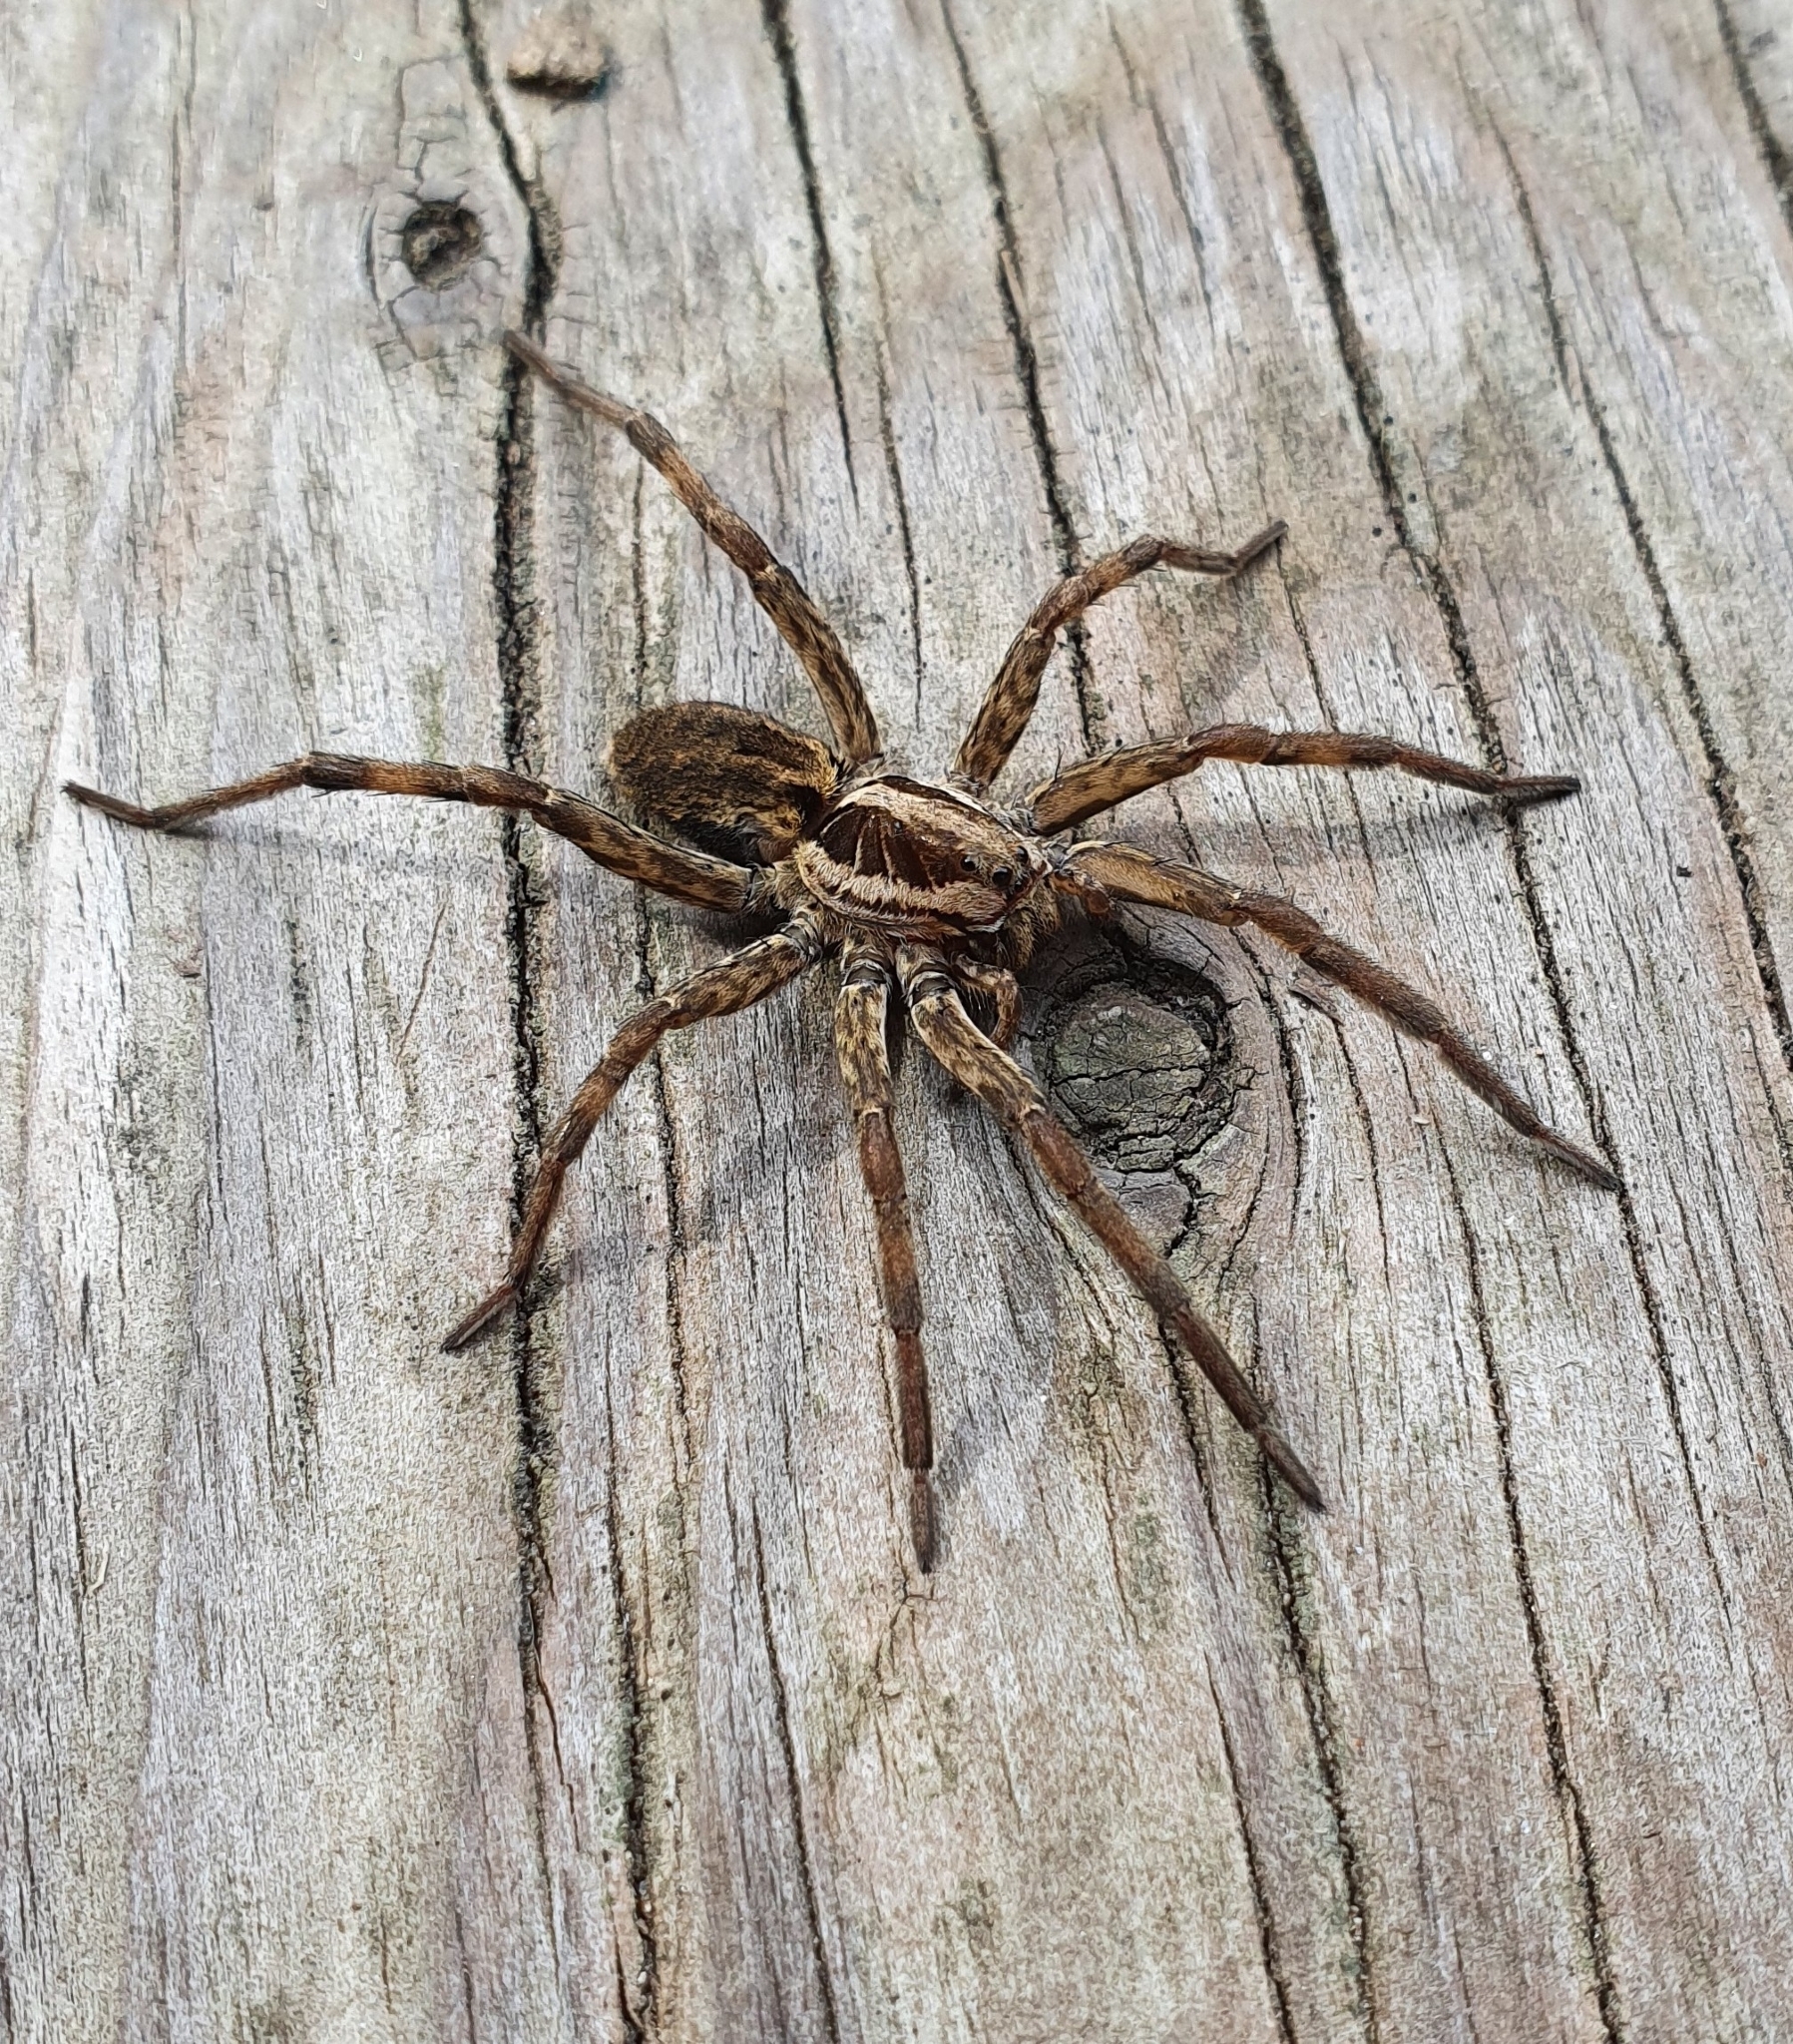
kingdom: Animalia
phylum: Arthropoda
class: Arachnida
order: Araneae
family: Lycosidae
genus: Hogna
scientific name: Hogna radiata
